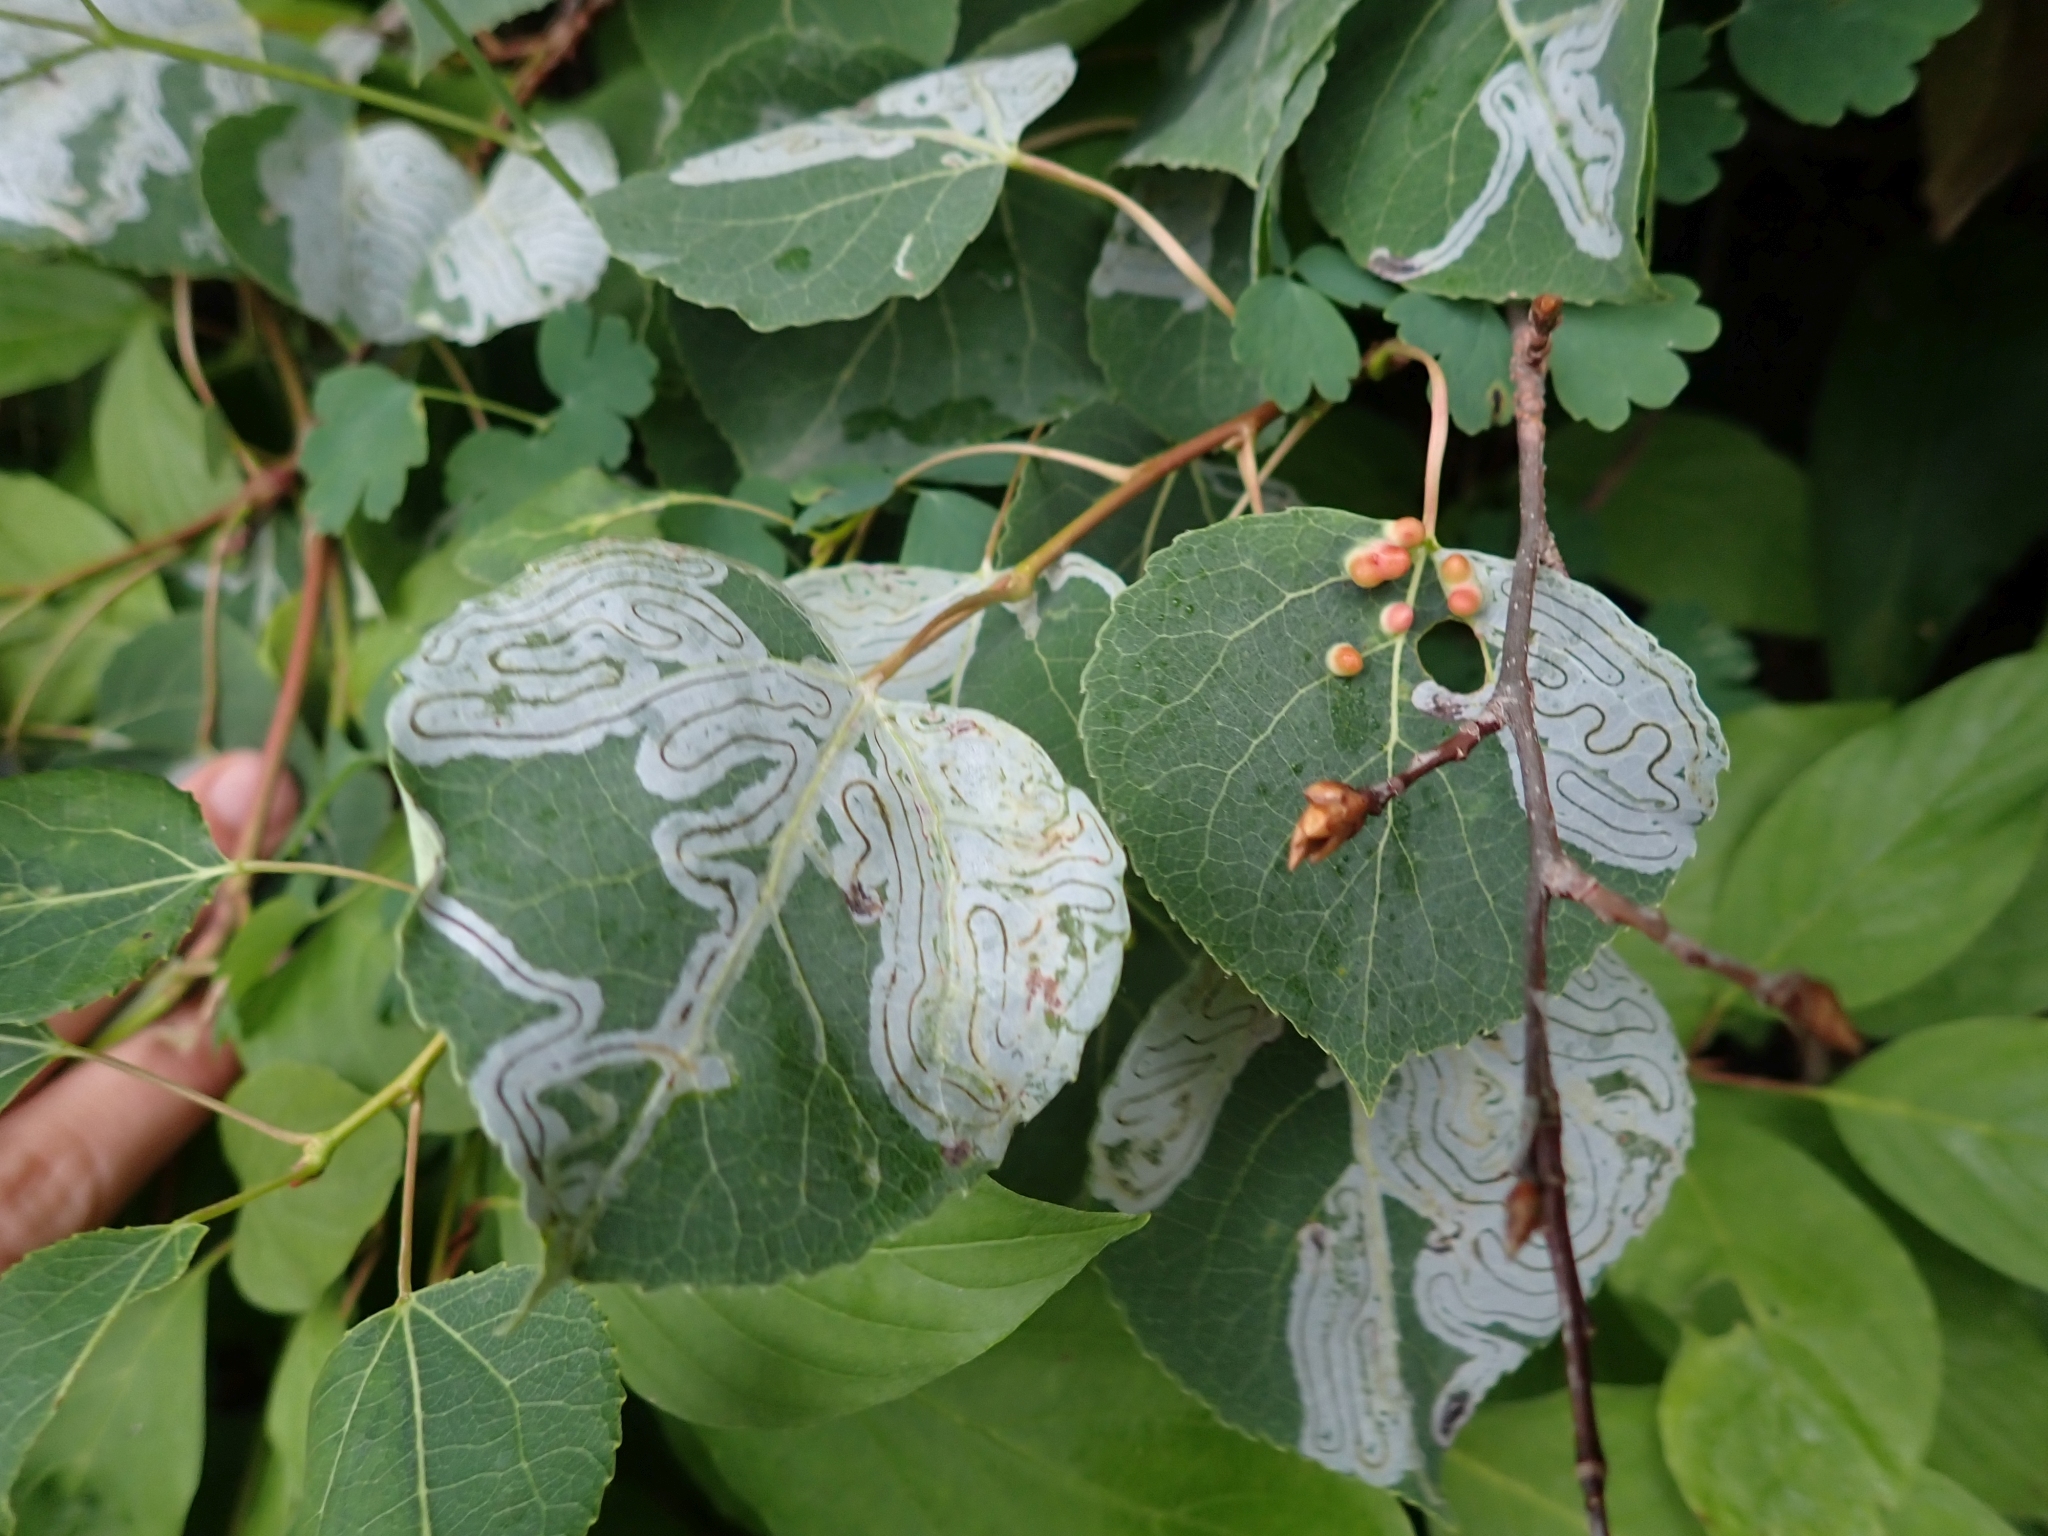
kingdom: Plantae
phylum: Tracheophyta
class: Magnoliopsida
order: Malpighiales
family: Salicaceae
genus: Populus
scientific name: Populus tremuloides
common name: Quaking aspen
